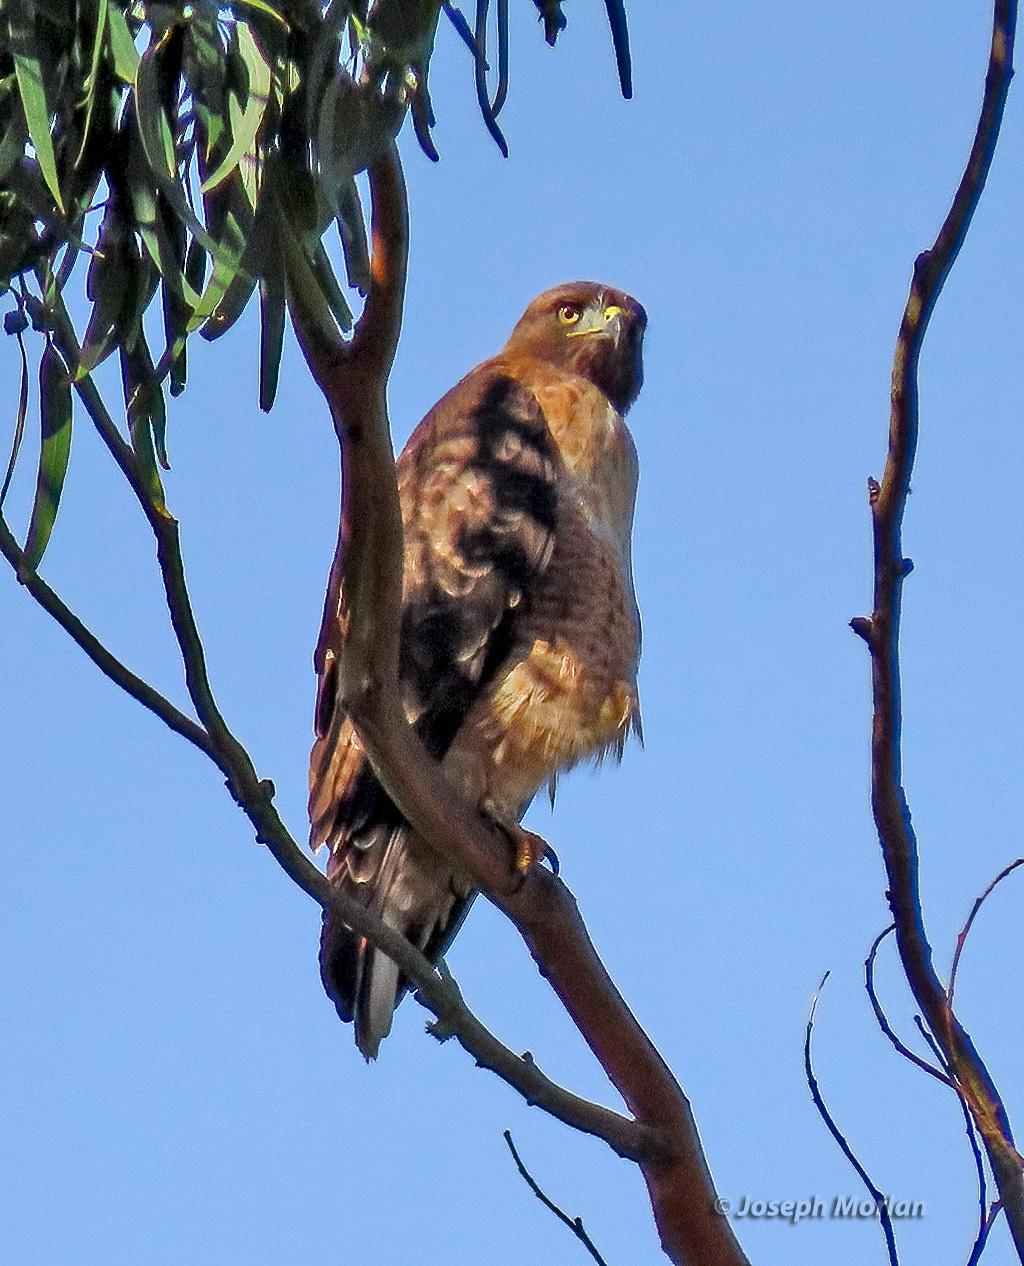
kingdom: Animalia
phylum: Chordata
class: Aves
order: Accipitriformes
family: Accipitridae
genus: Buteo
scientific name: Buteo jamaicensis
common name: Red-tailed hawk
